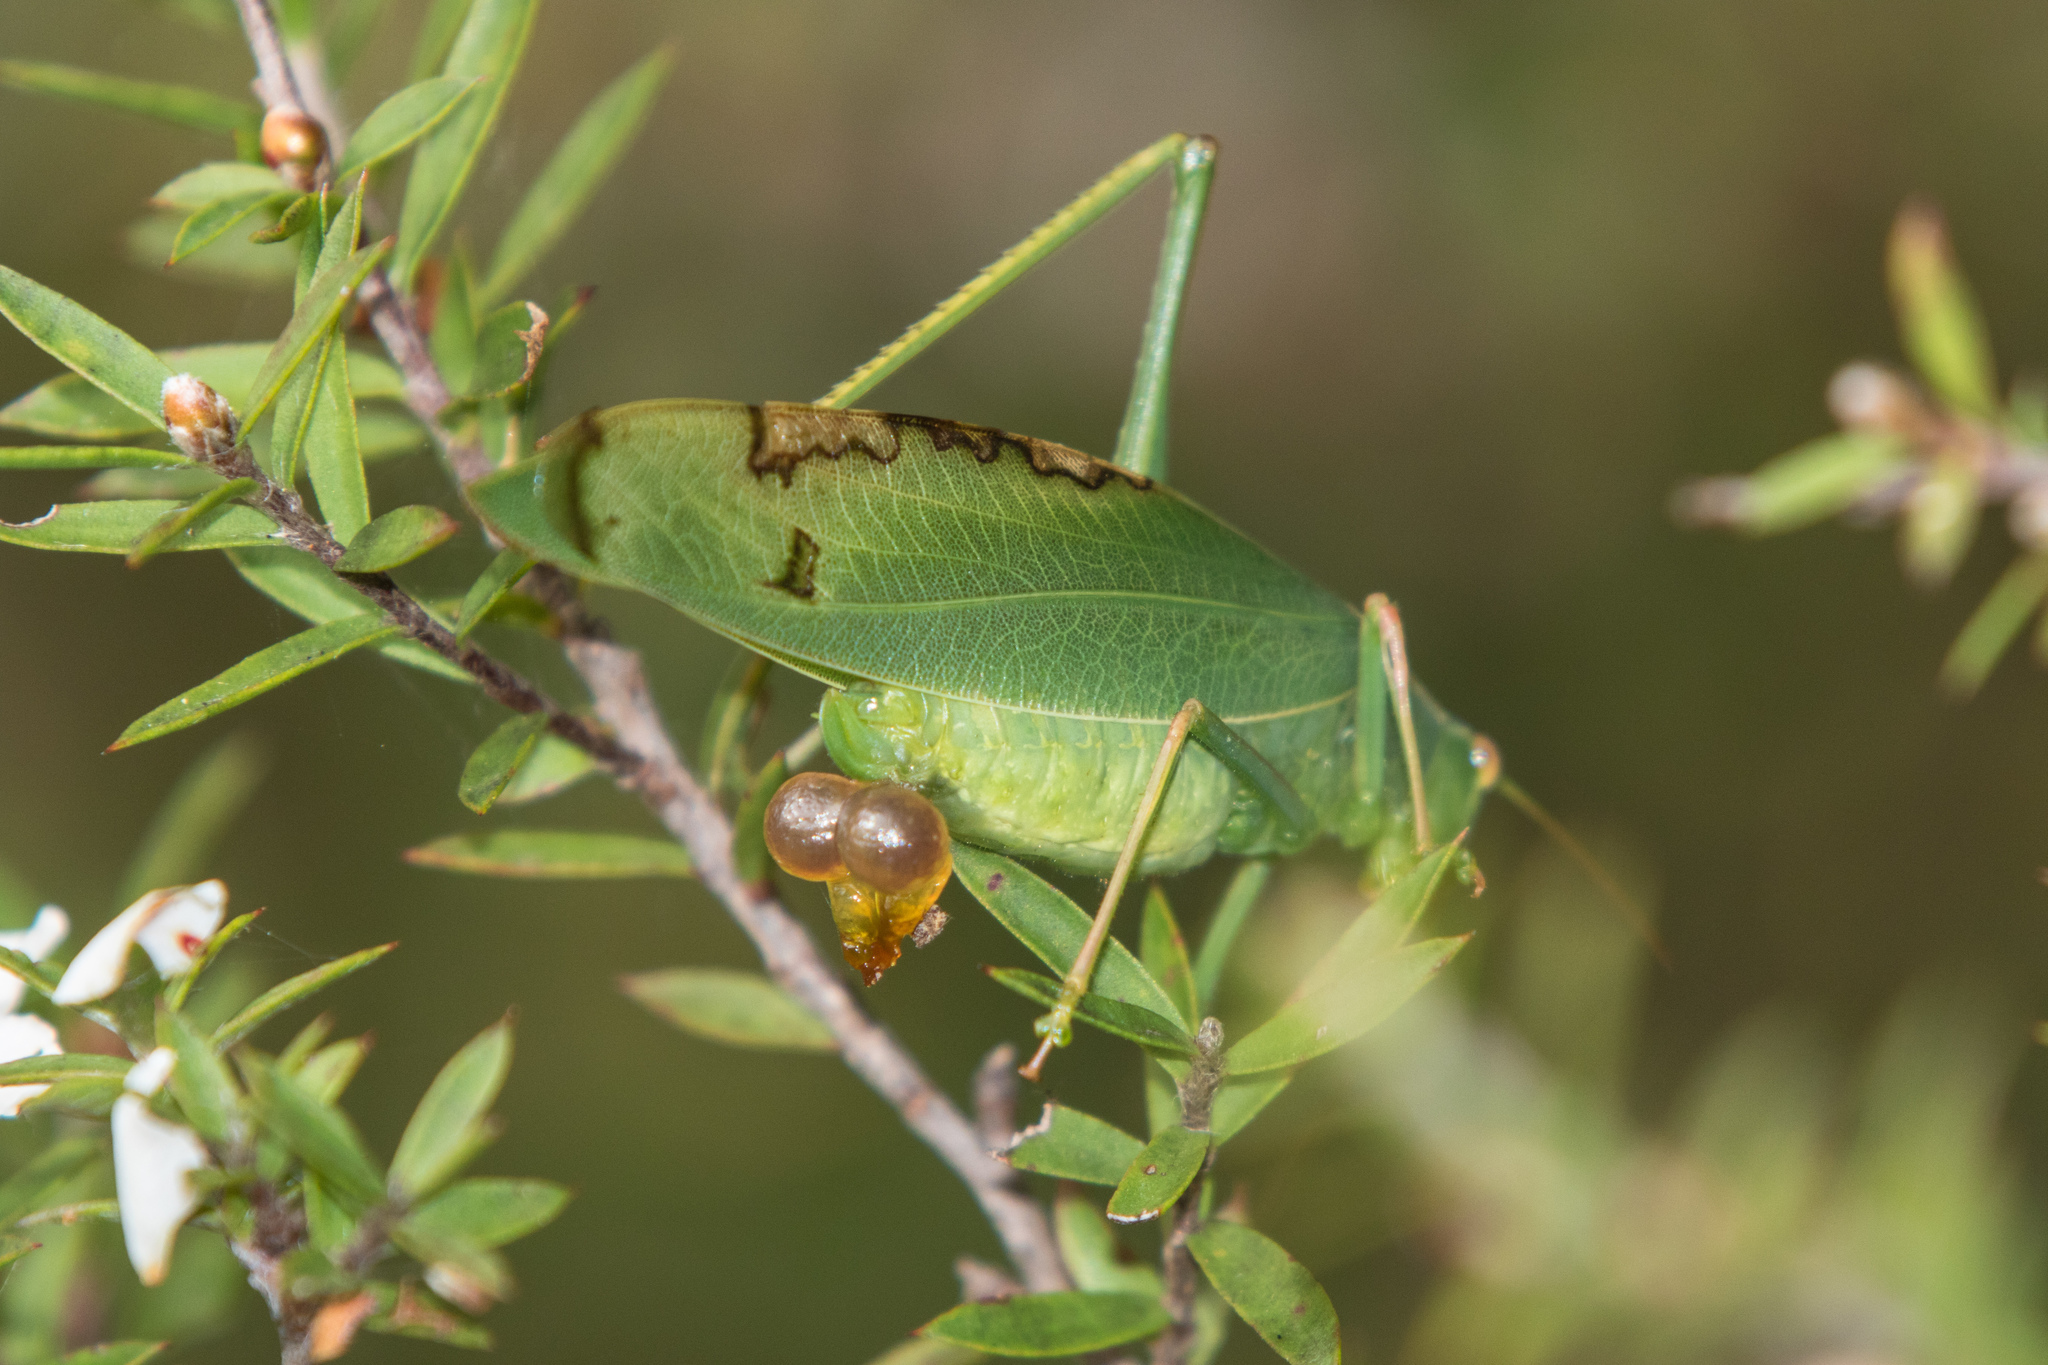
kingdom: Animalia
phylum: Arthropoda
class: Insecta
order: Orthoptera
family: Tettigoniidae
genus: Caedicia
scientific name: Caedicia simplex
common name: Common garden katydid
